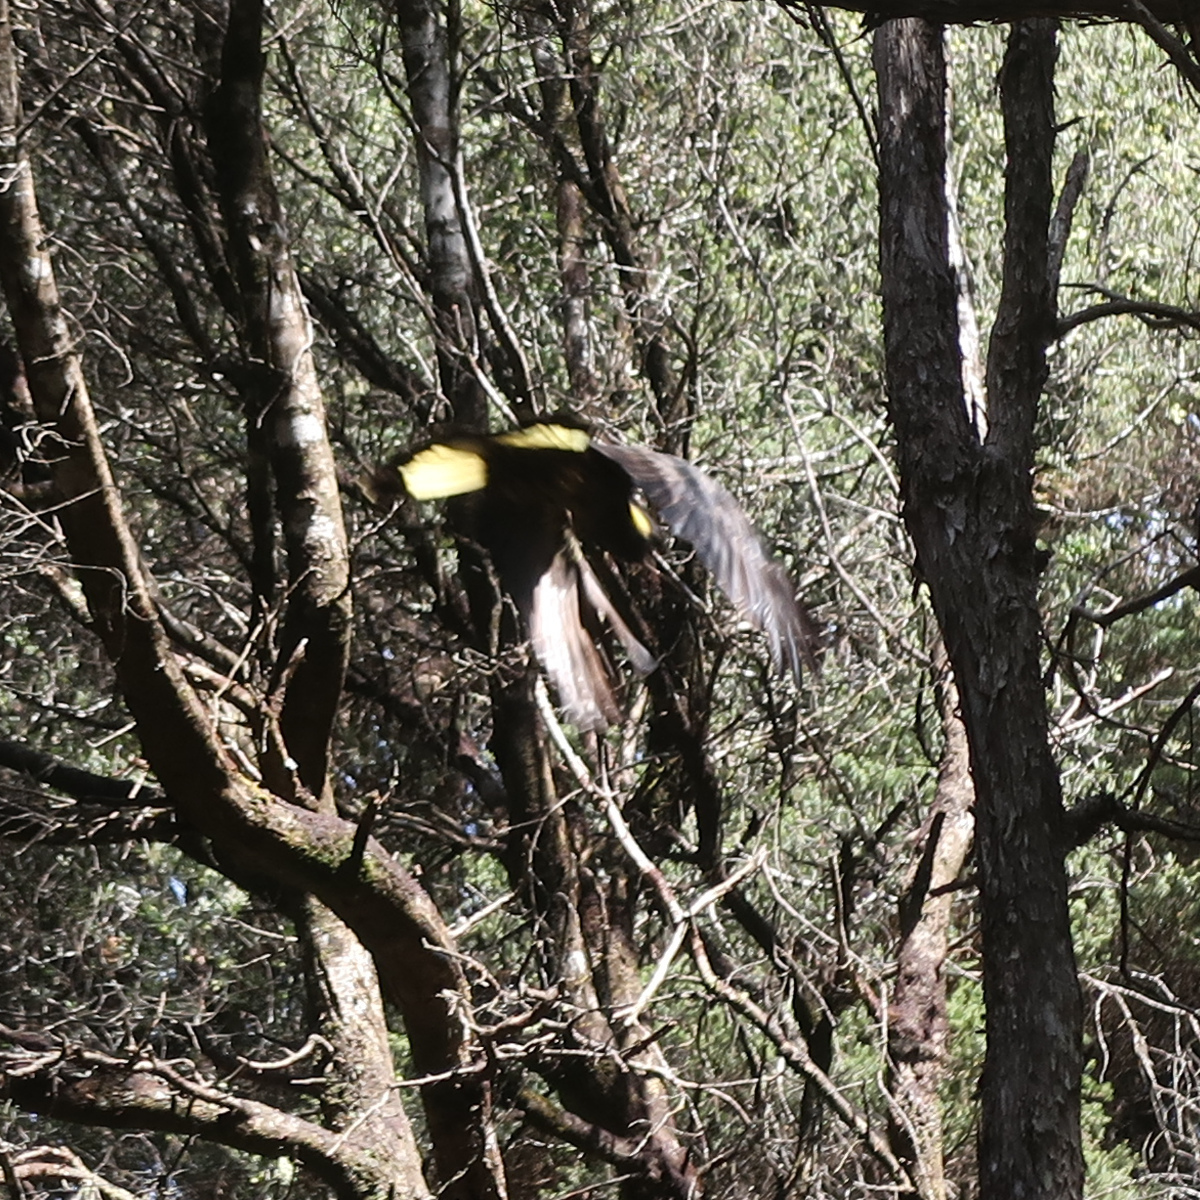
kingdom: Animalia
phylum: Chordata
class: Aves
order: Psittaciformes
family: Cacatuidae
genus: Zanda
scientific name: Zanda funerea
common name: Yellow-tailed black-cockatoo
